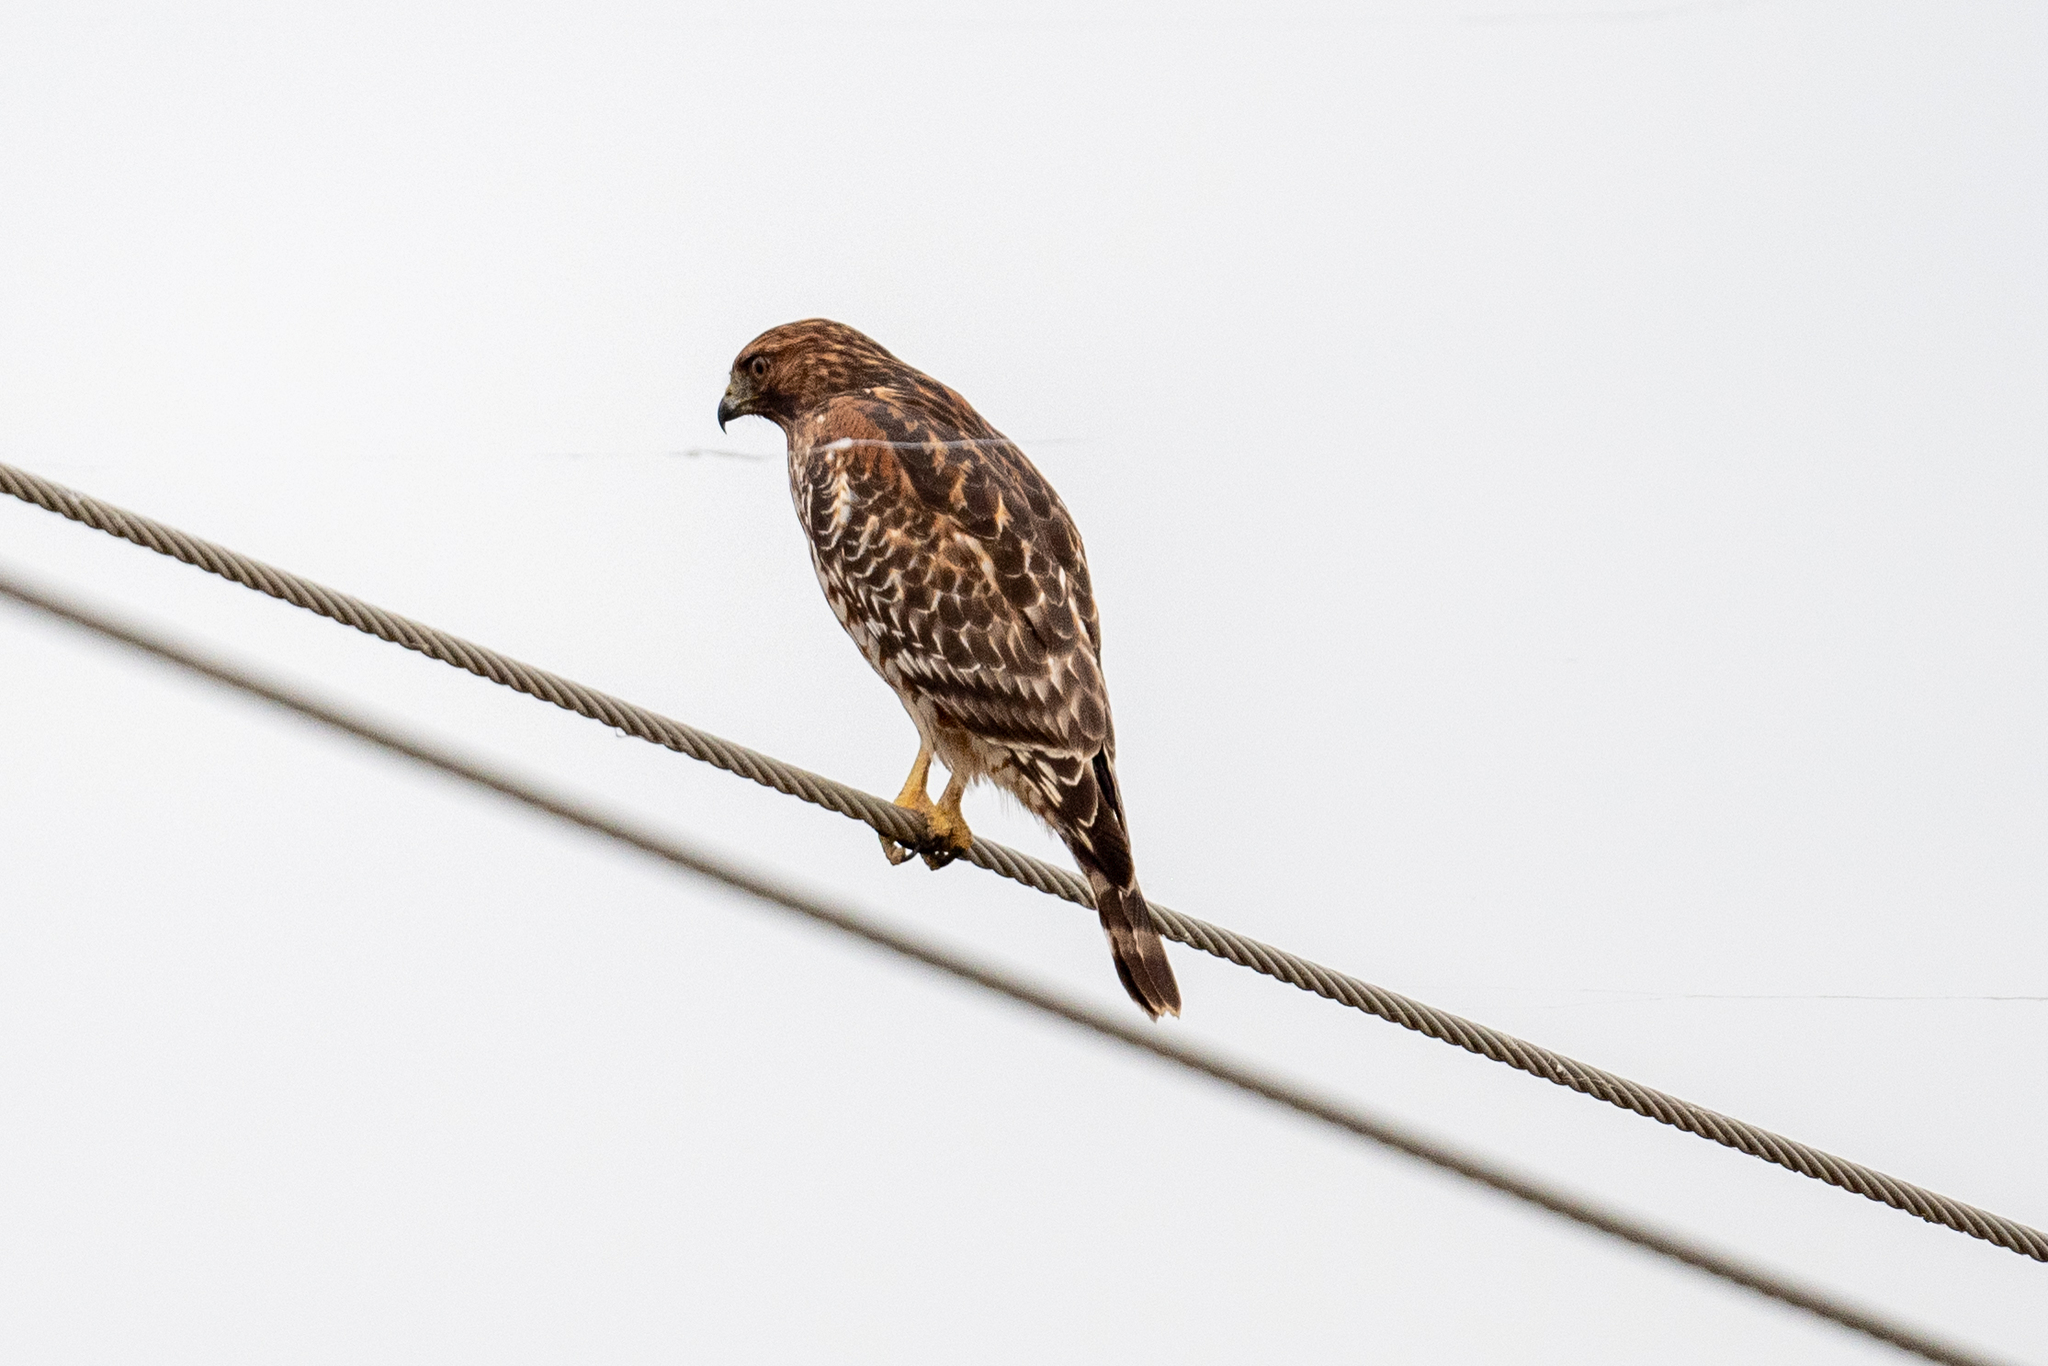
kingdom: Animalia
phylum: Chordata
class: Aves
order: Accipitriformes
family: Accipitridae
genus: Buteo
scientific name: Buteo lineatus
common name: Red-shouldered hawk
